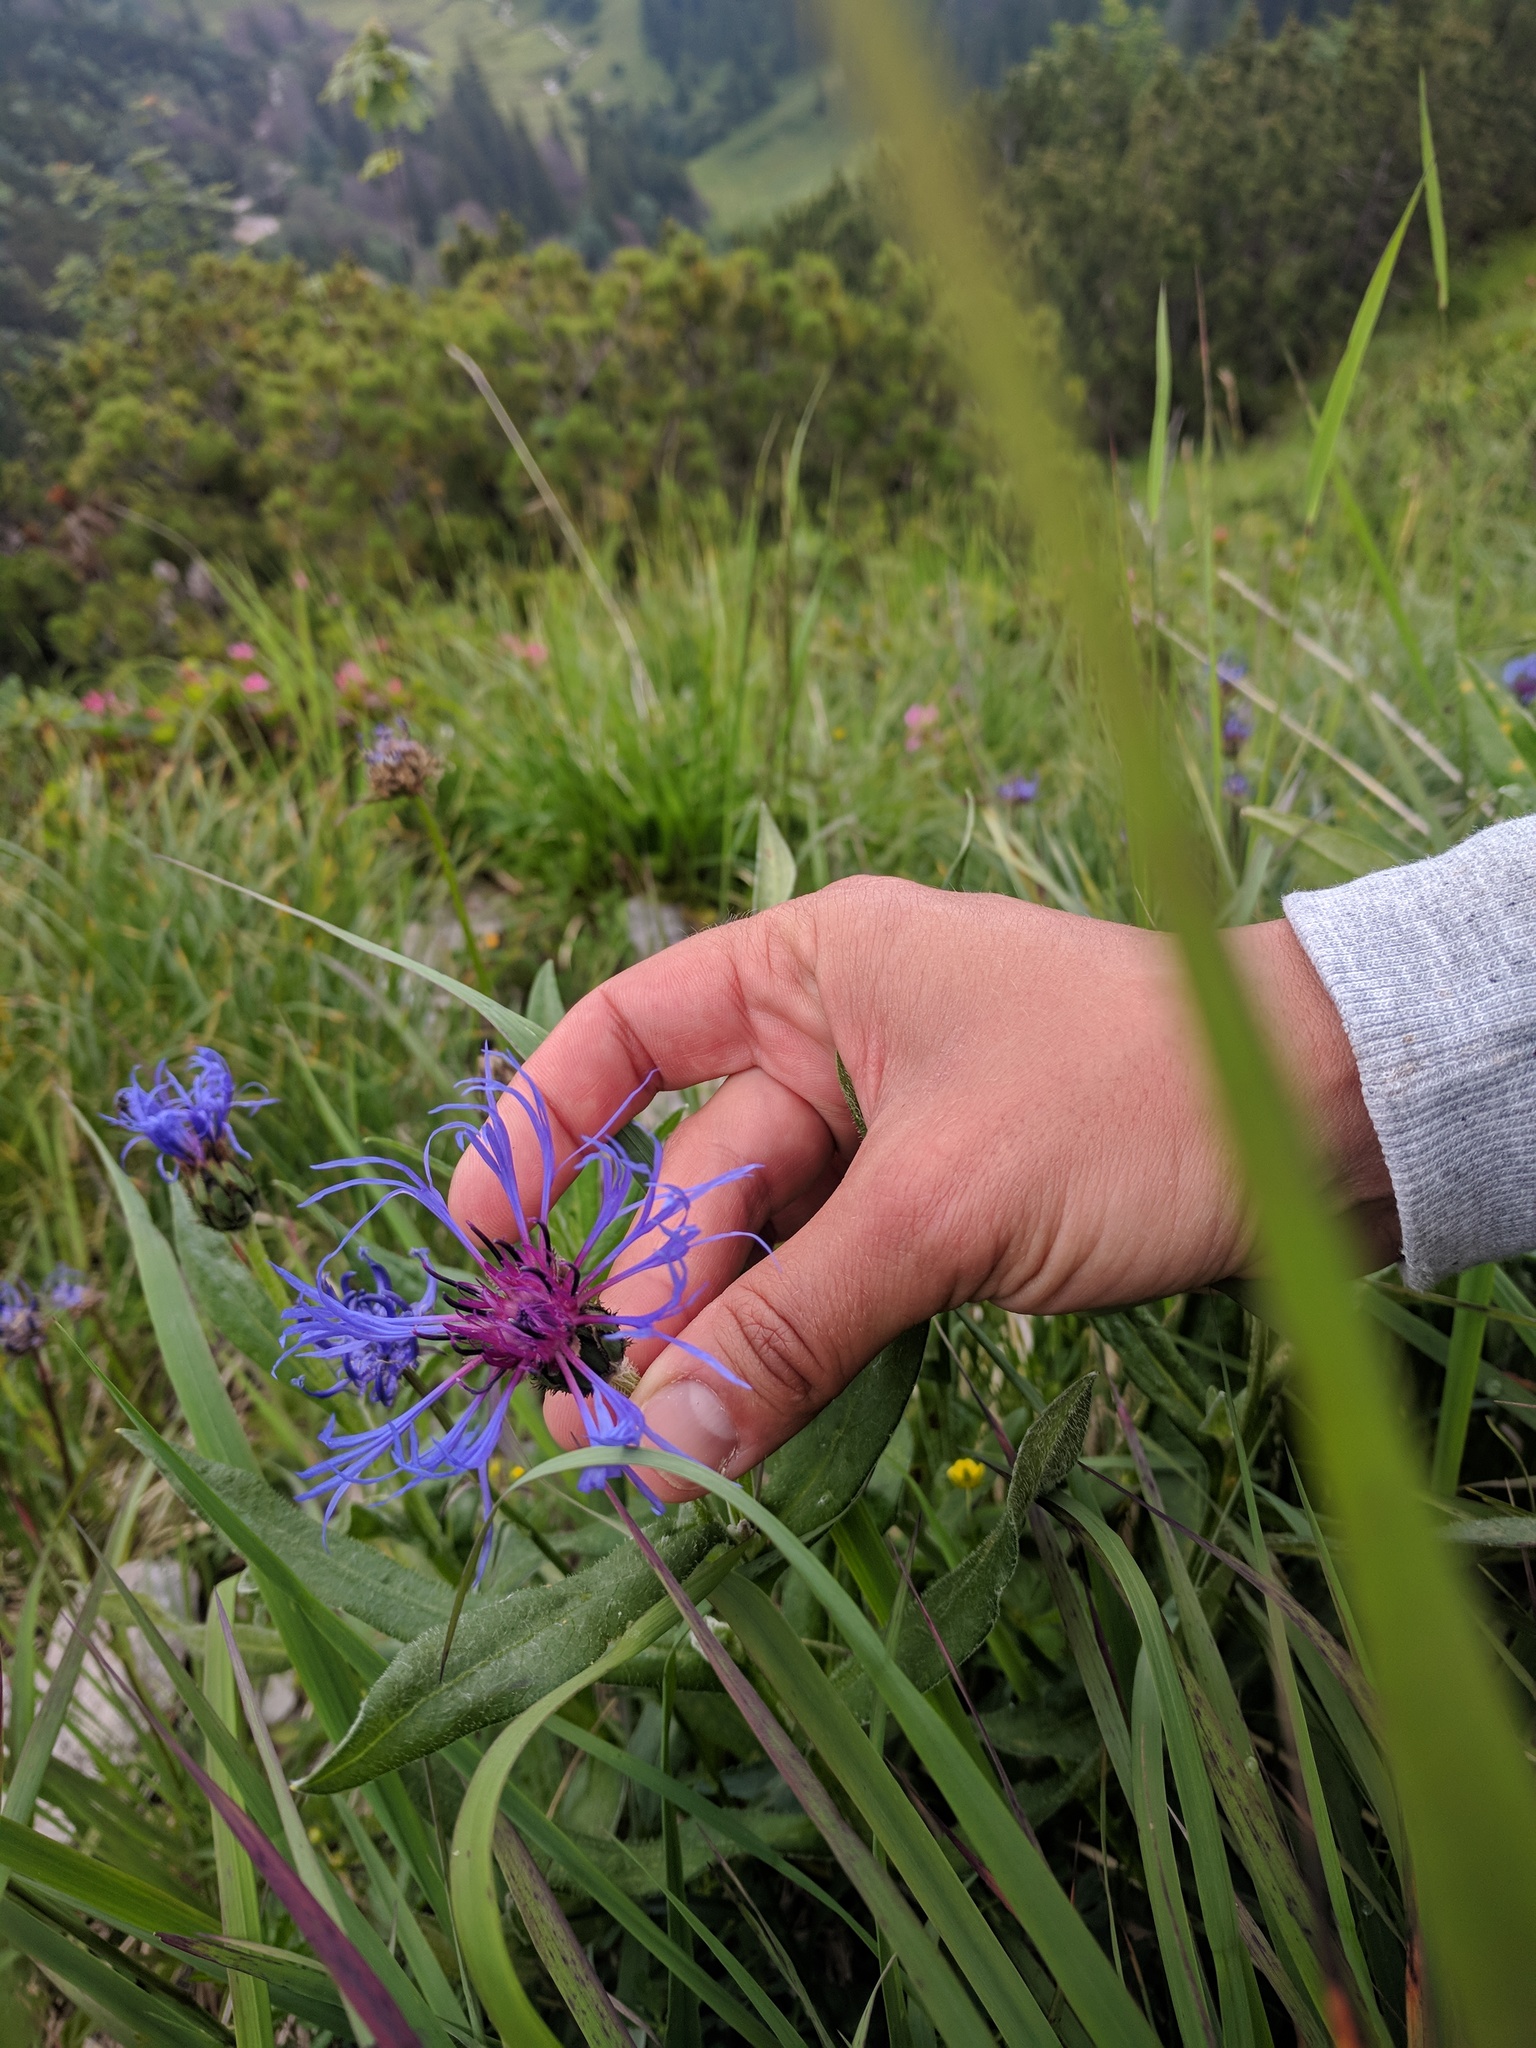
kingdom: Plantae
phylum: Tracheophyta
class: Magnoliopsida
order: Asterales
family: Asteraceae
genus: Centaurea
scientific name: Centaurea montana
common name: Perennial cornflower
